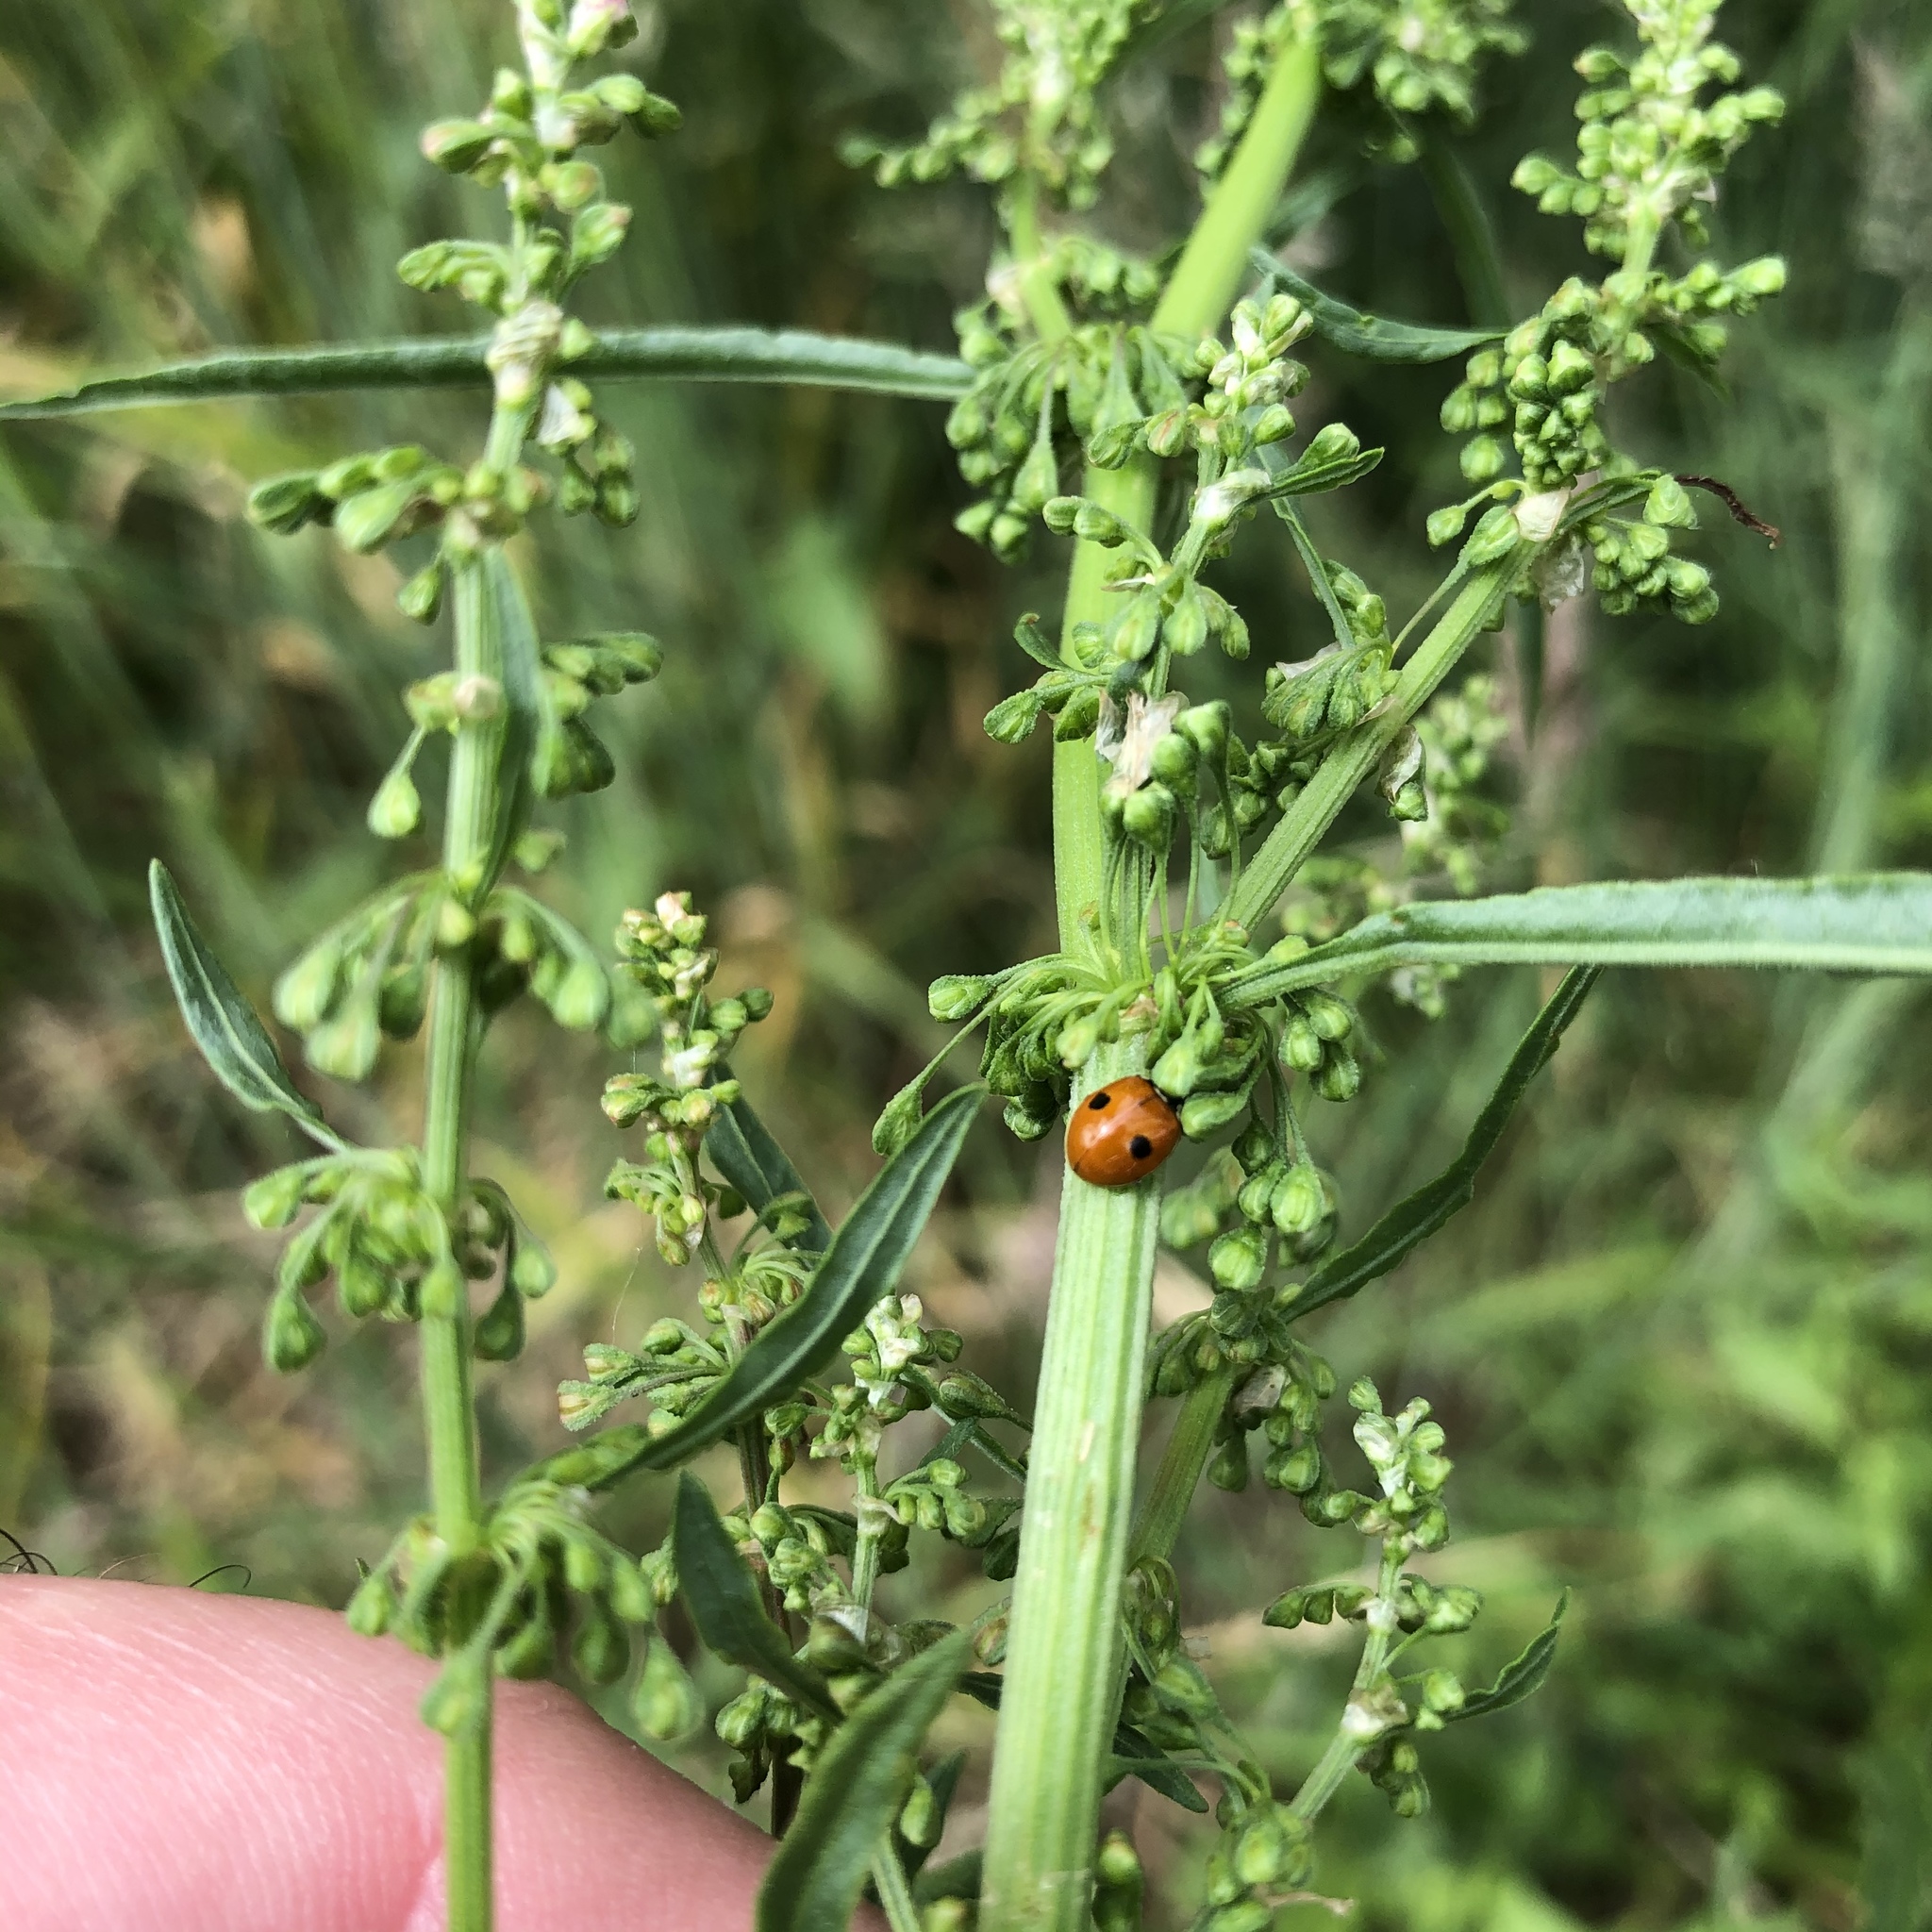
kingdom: Animalia
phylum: Arthropoda
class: Insecta
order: Coleoptera
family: Coccinellidae
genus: Adalia
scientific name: Adalia bipunctata
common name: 2-spot ladybird
